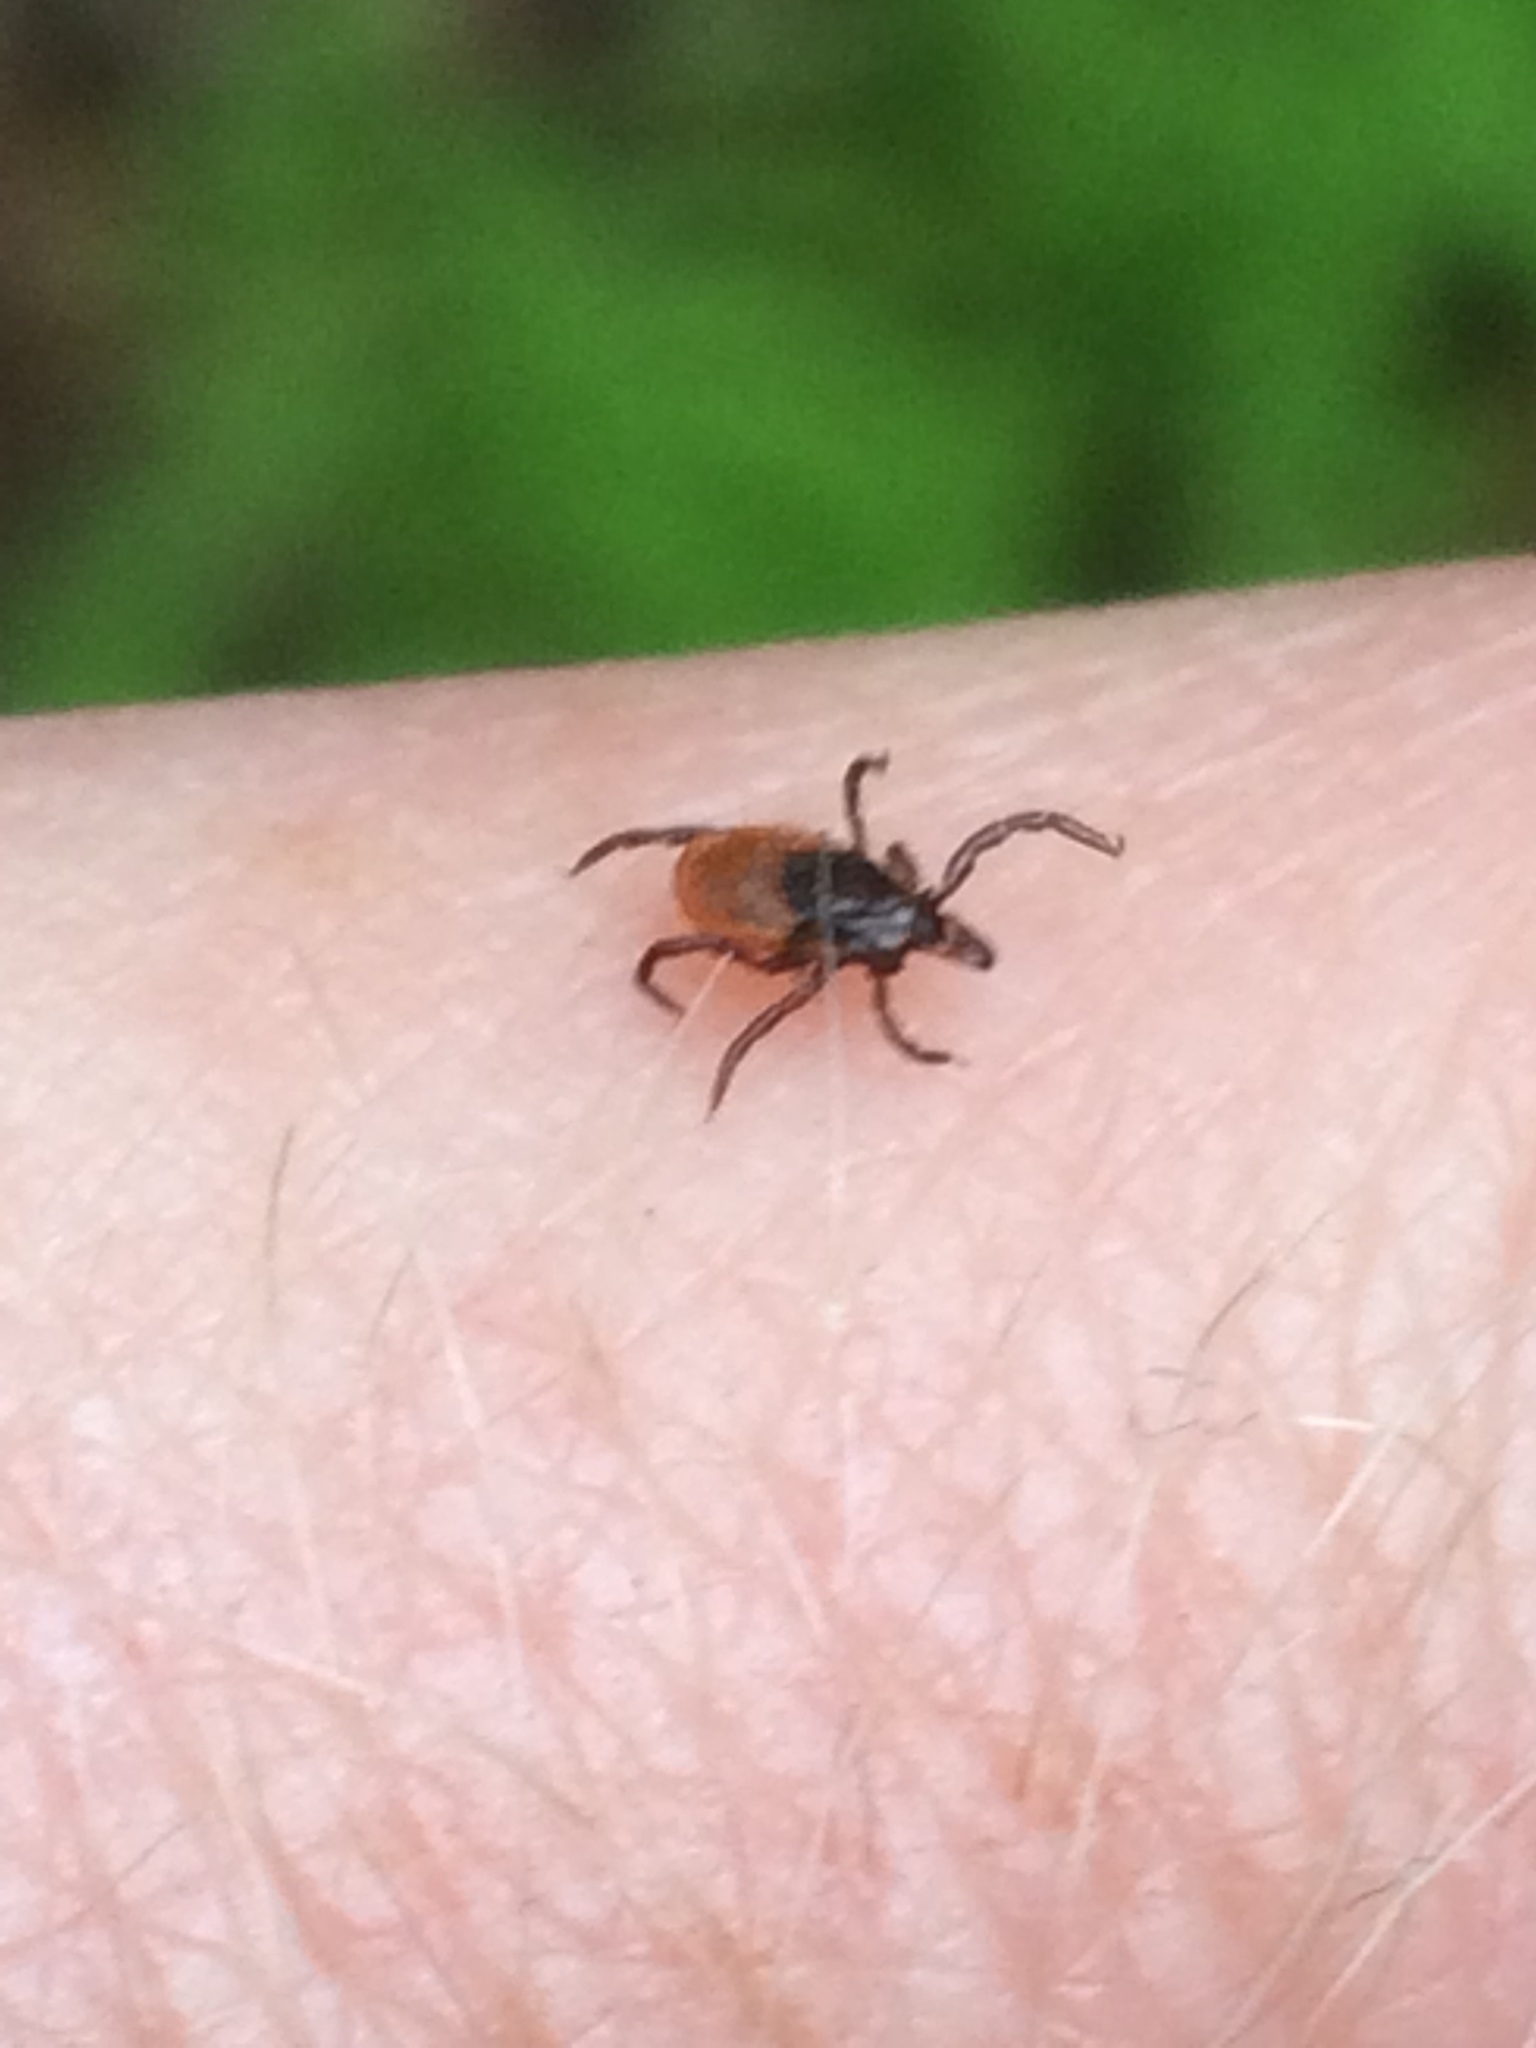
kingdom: Animalia
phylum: Arthropoda
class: Arachnida
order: Ixodida
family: Ixodidae
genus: Ixodes
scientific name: Ixodes scapularis
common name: Black legged tick
